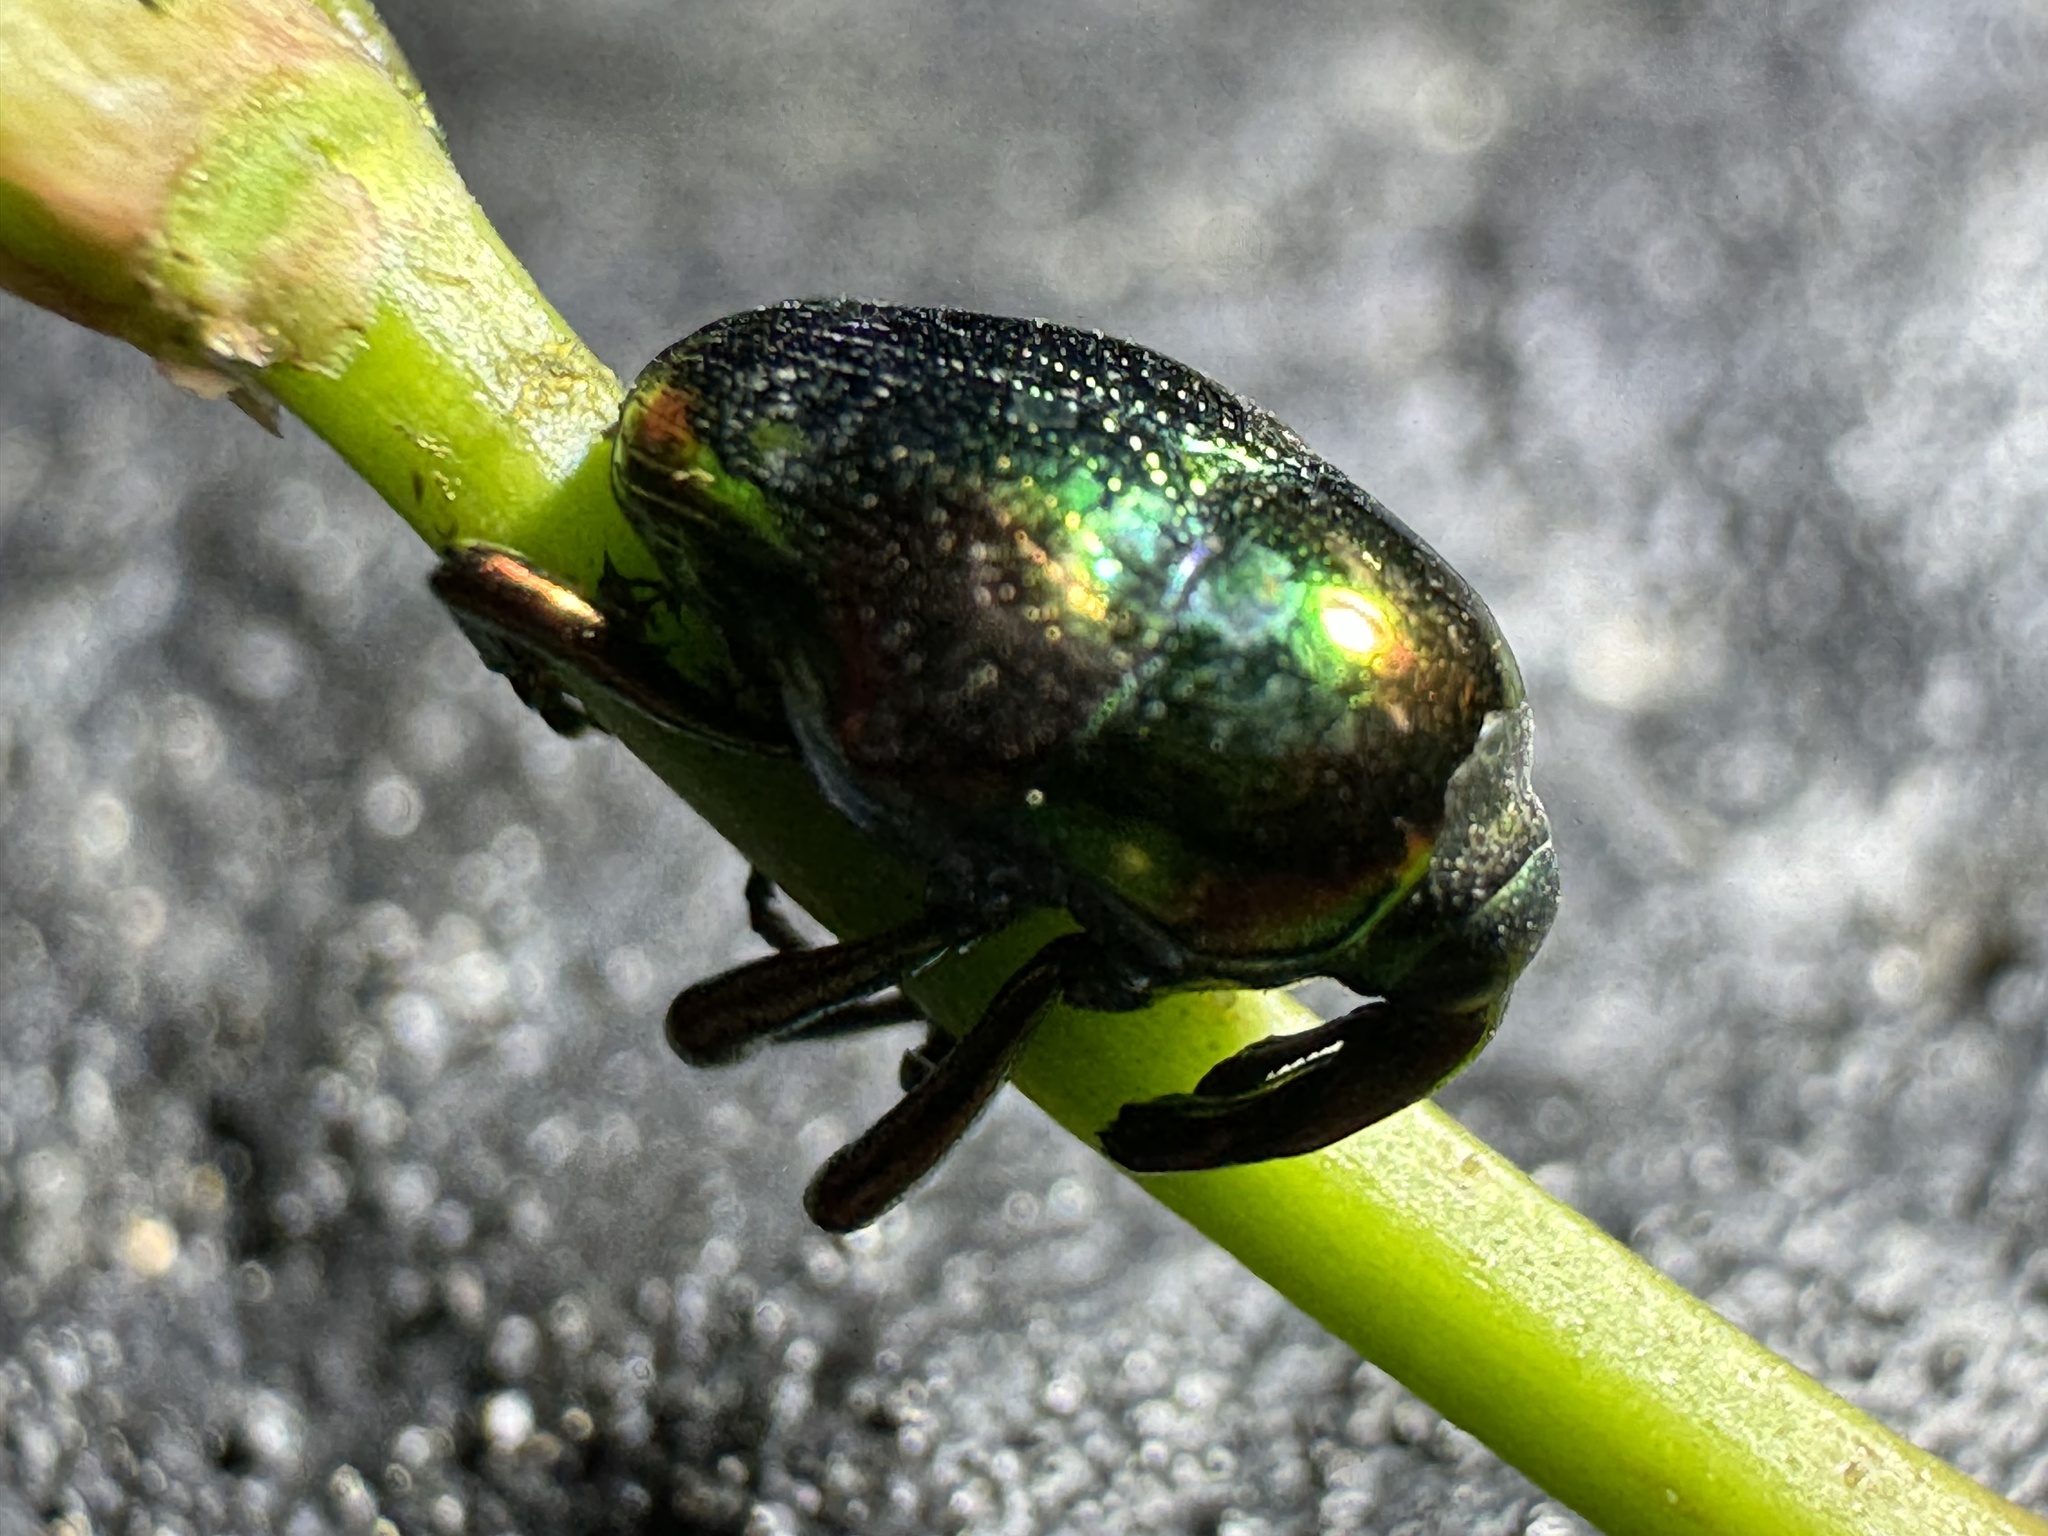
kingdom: Animalia
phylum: Arthropoda
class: Insecta
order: Coleoptera
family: Eurhynchidae
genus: Eurhinus
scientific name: Eurhinus magnificus
